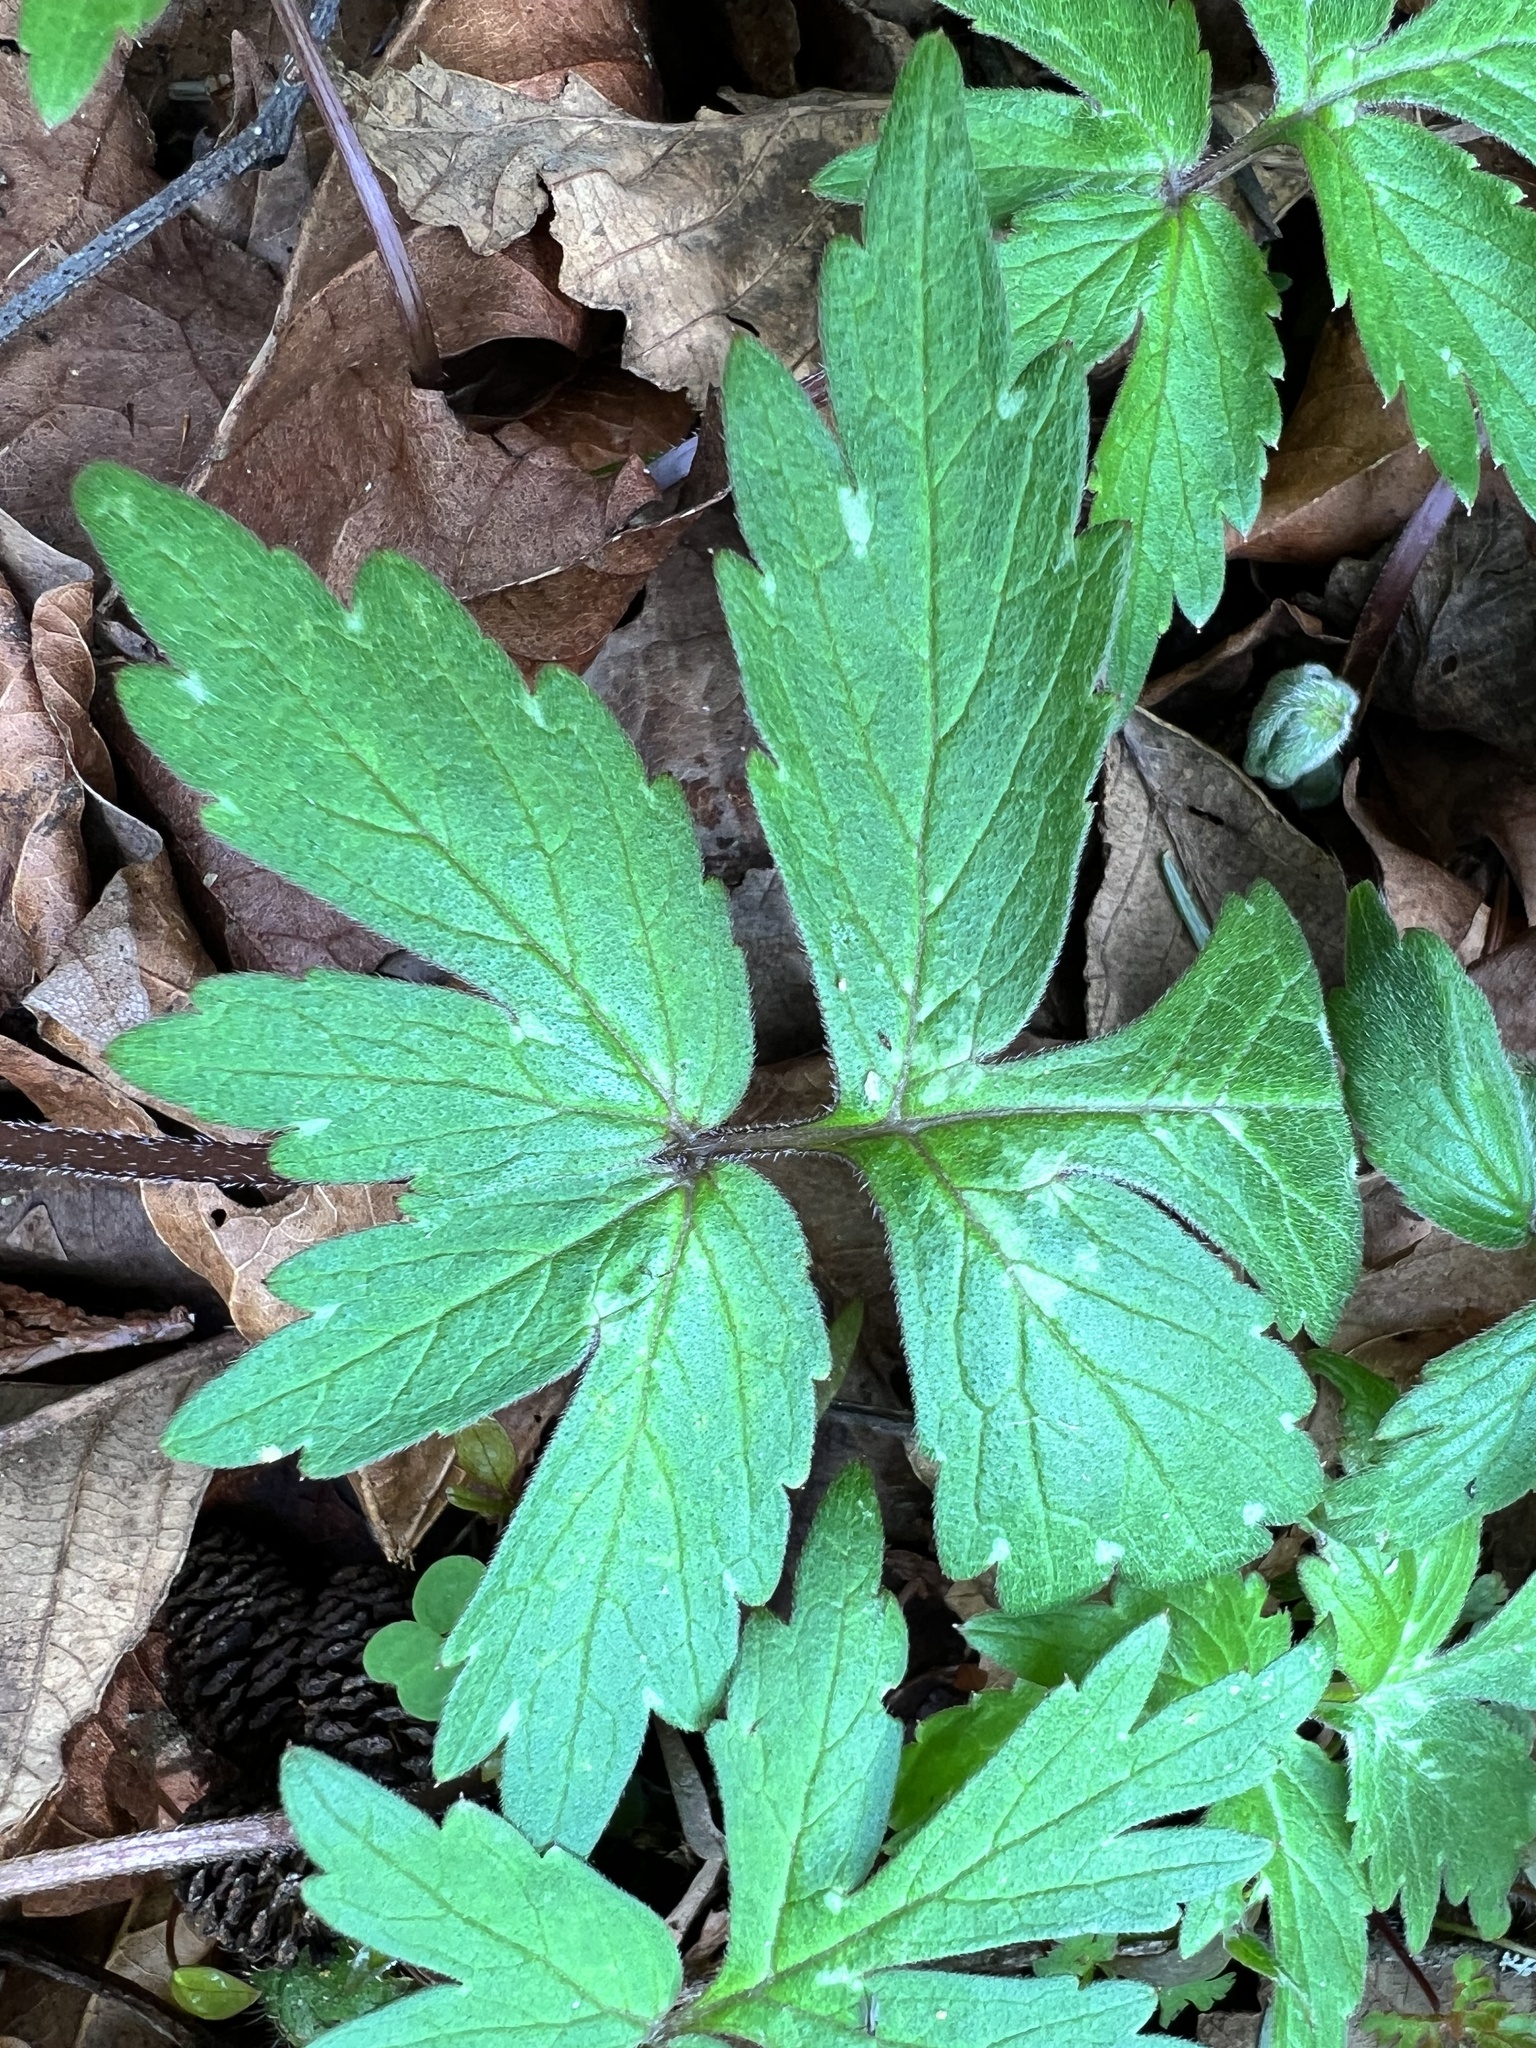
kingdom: Plantae
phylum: Tracheophyta
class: Magnoliopsida
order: Boraginales
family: Hydrophyllaceae
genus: Hydrophyllum
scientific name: Hydrophyllum tenuipes
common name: Pacific waterleaf
